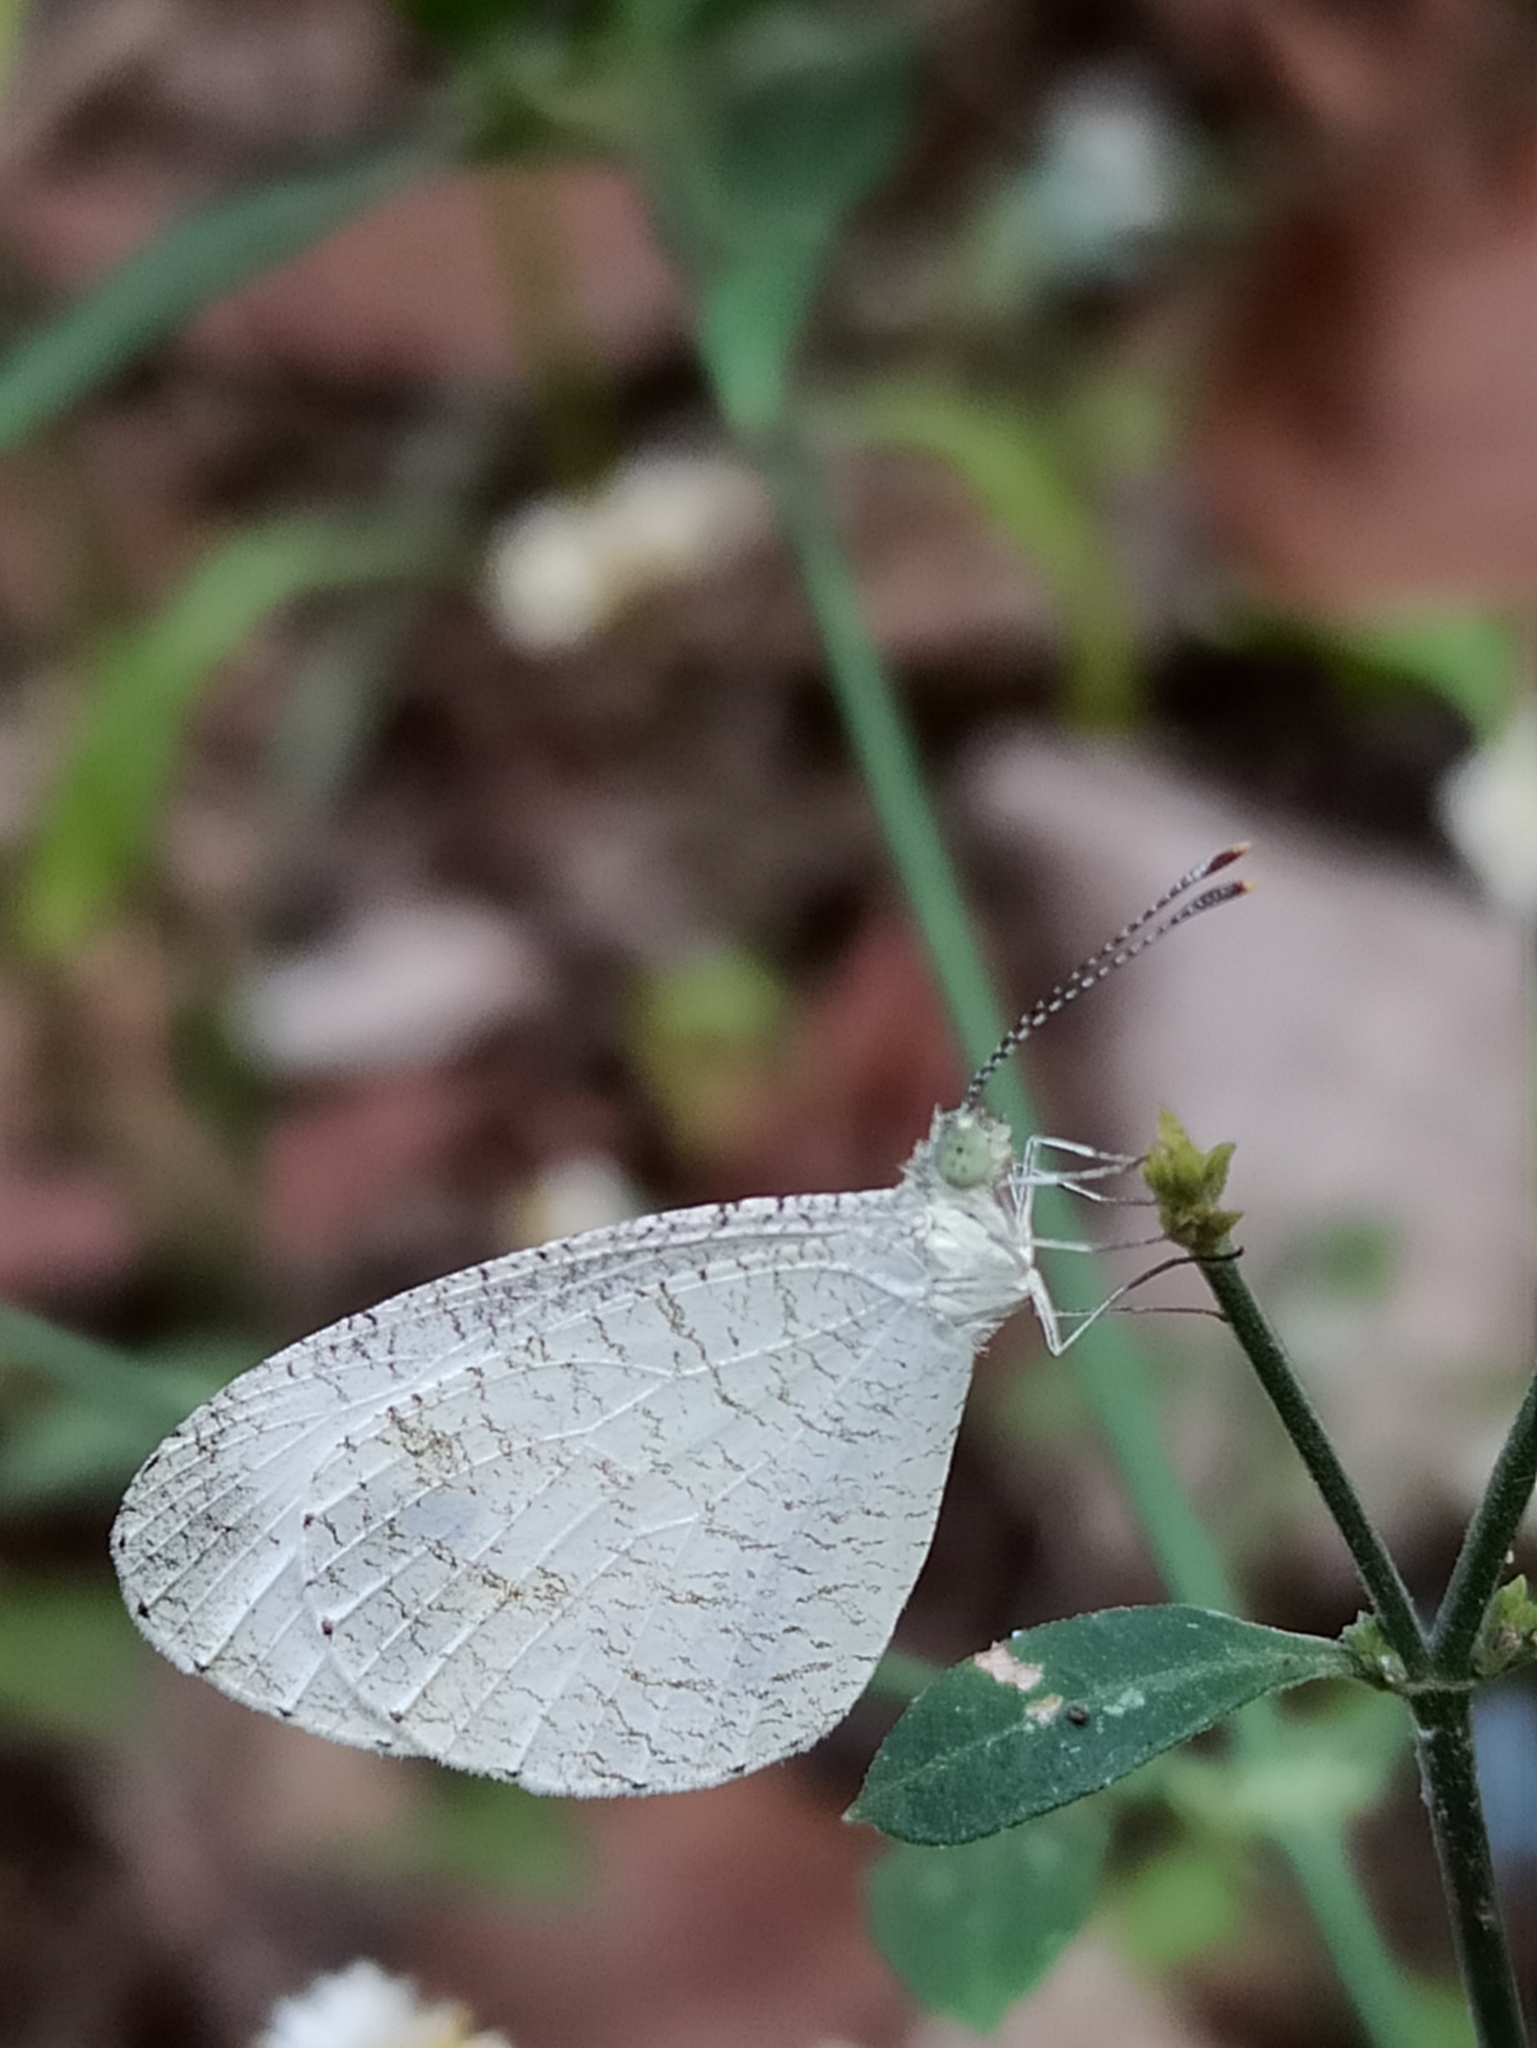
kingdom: Animalia
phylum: Arthropoda
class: Insecta
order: Lepidoptera
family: Pieridae
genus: Leptosia
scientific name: Leptosia nina
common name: Psyche
